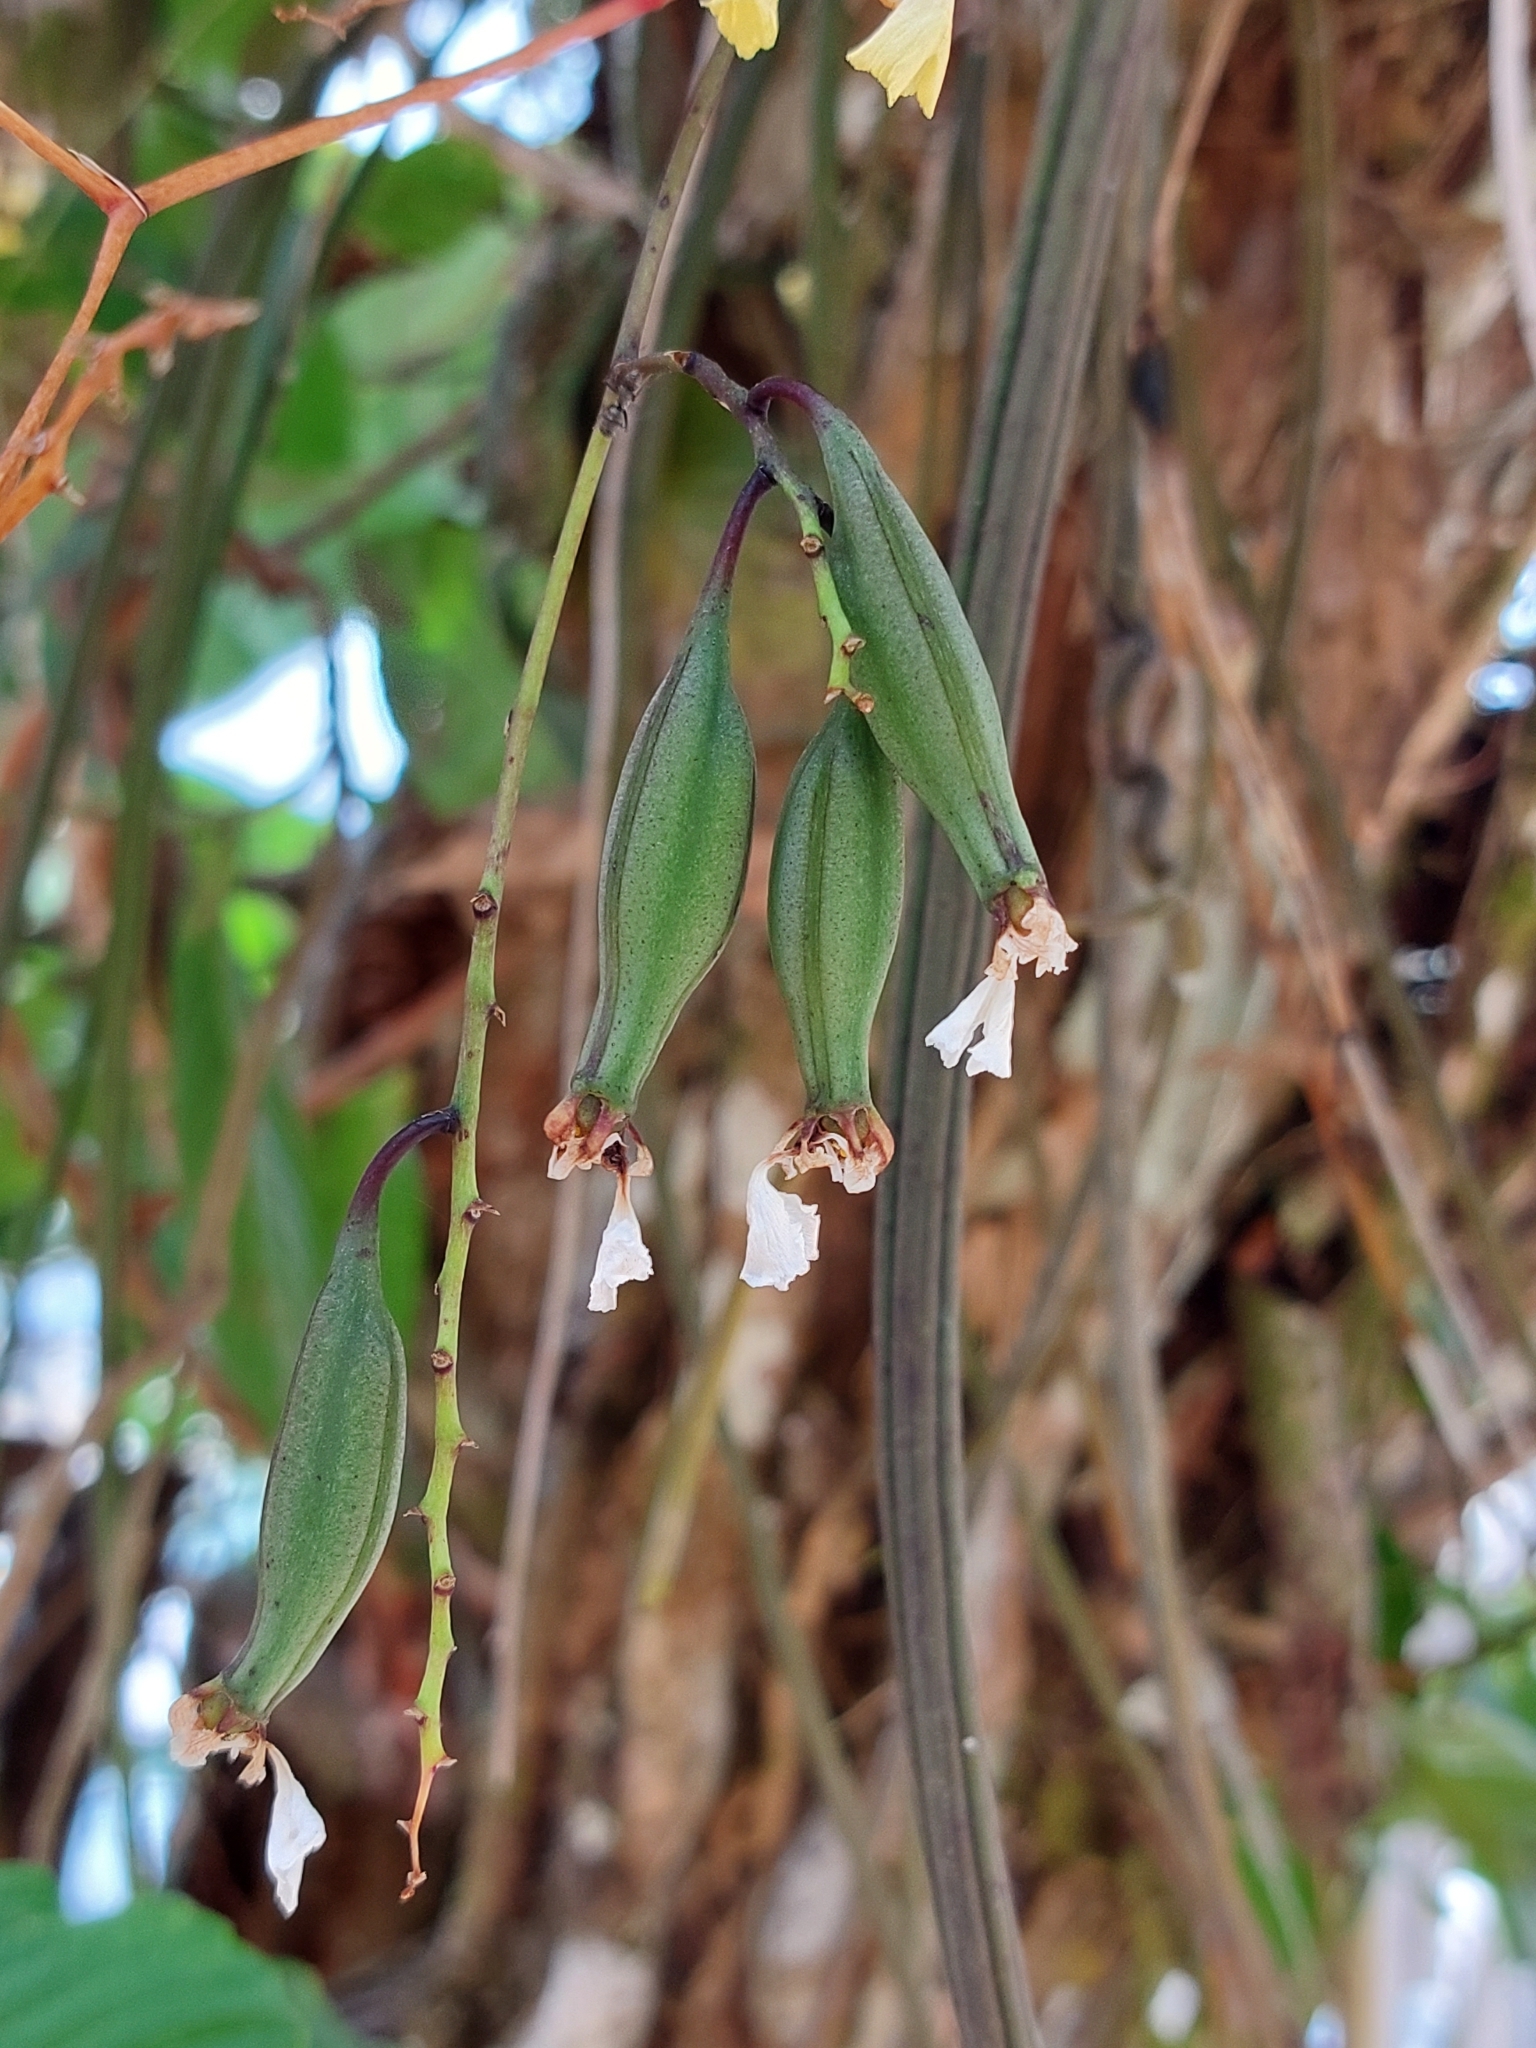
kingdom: Plantae
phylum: Tracheophyta
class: Liliopsida
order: Asparagales
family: Orchidaceae
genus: Trichocentrum
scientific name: Trichocentrum lacerum
